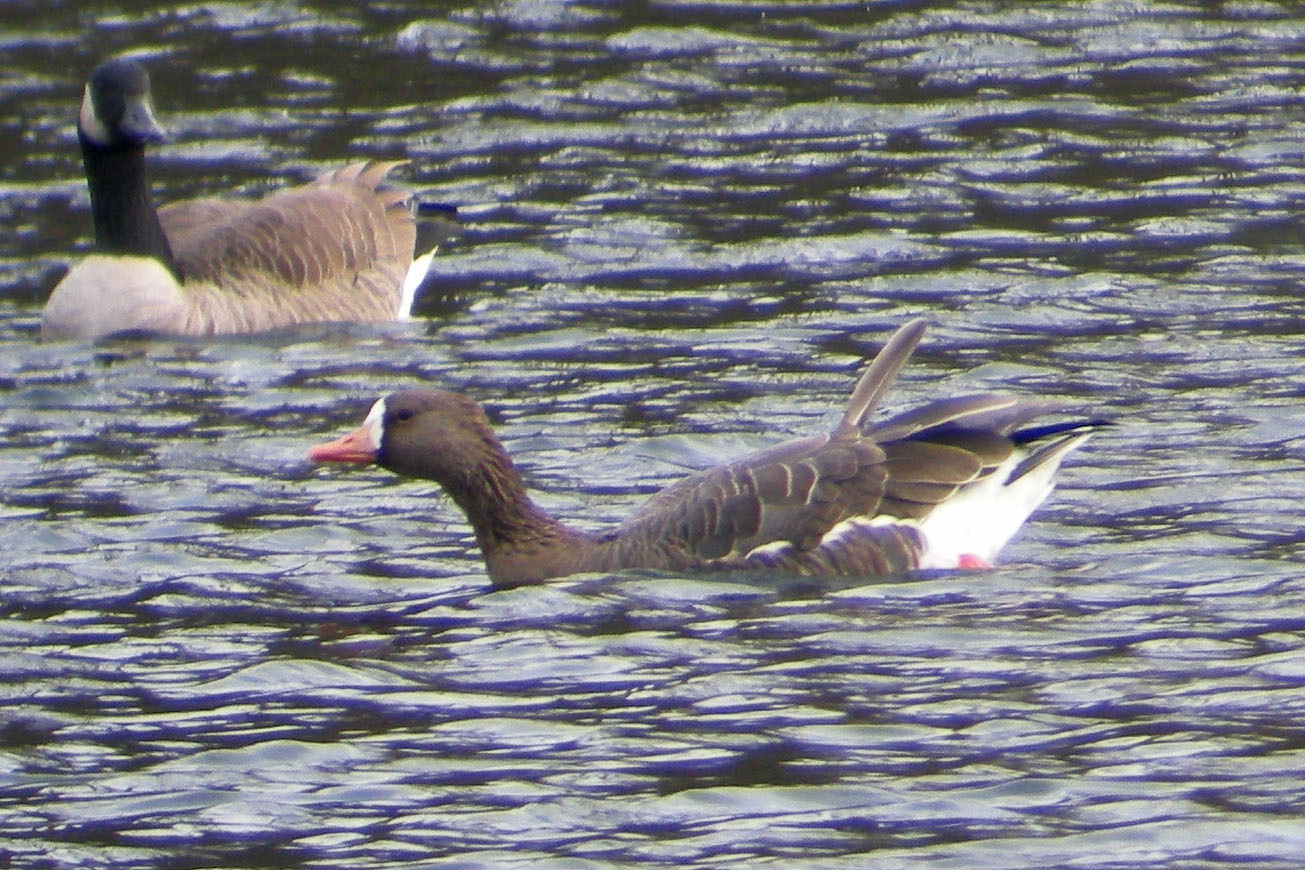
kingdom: Animalia
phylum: Chordata
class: Aves
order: Anseriformes
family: Anatidae
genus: Anser
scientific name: Anser albifrons
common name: Greater white-fronted goose
